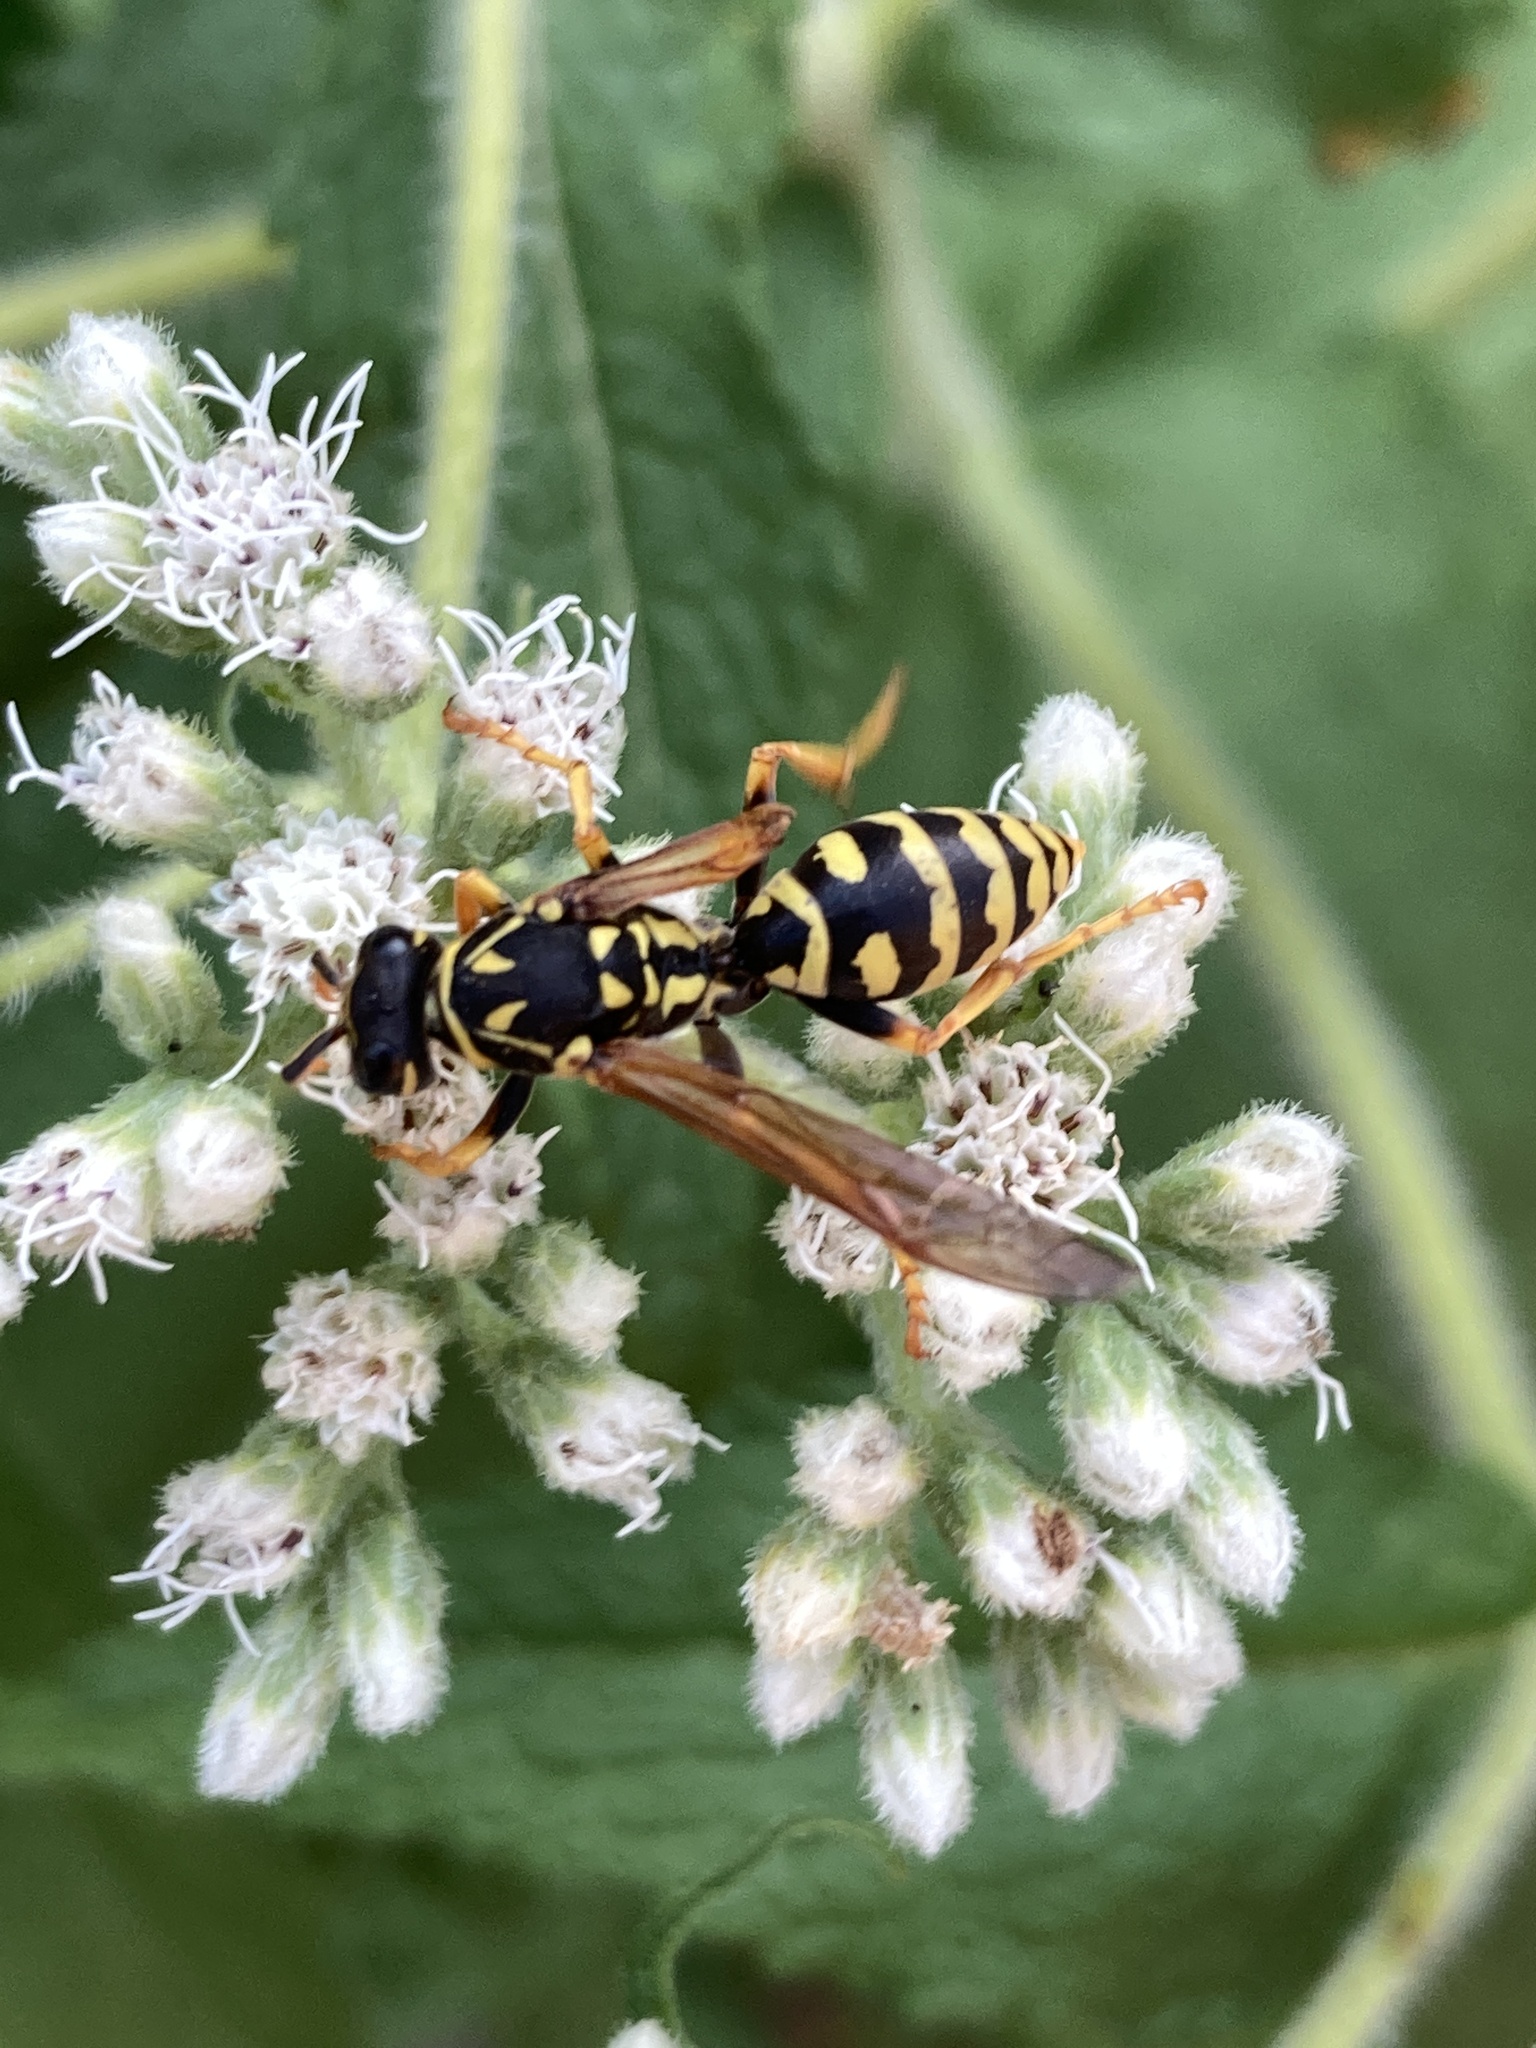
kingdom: Animalia
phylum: Arthropoda
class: Insecta
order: Hymenoptera
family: Eumenidae
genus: Polistes
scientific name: Polistes dominula
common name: Paper wasp
